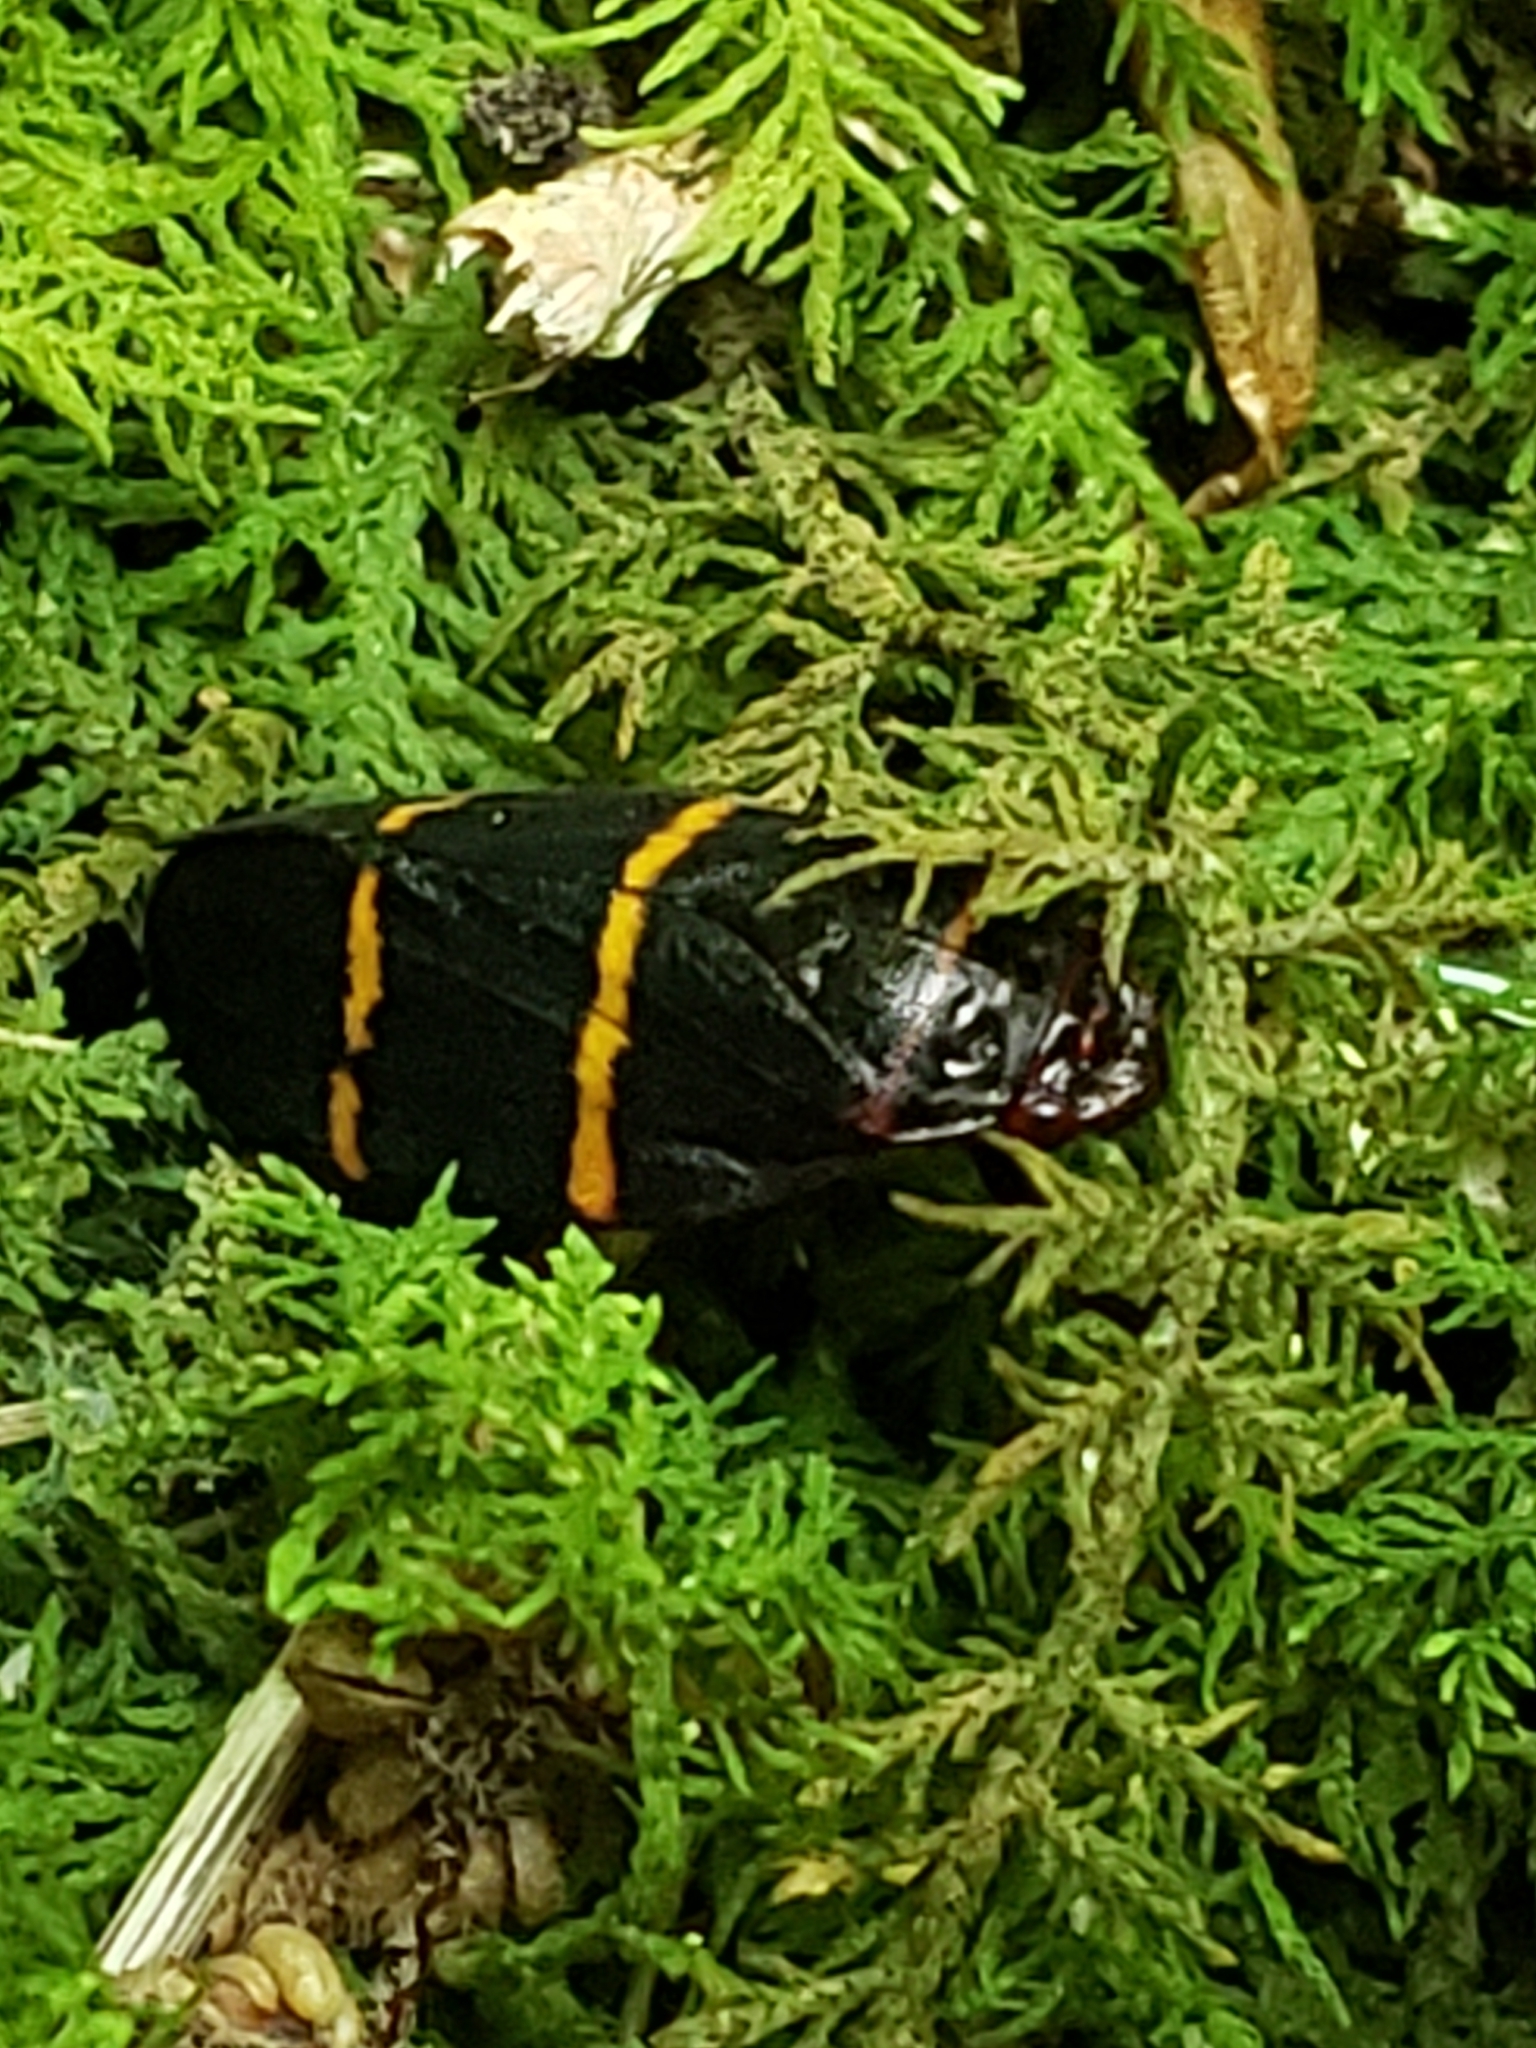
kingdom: Animalia
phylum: Arthropoda
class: Insecta
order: Hemiptera
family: Cercopidae
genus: Prosapia
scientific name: Prosapia bicincta
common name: Twolined spittlebug
